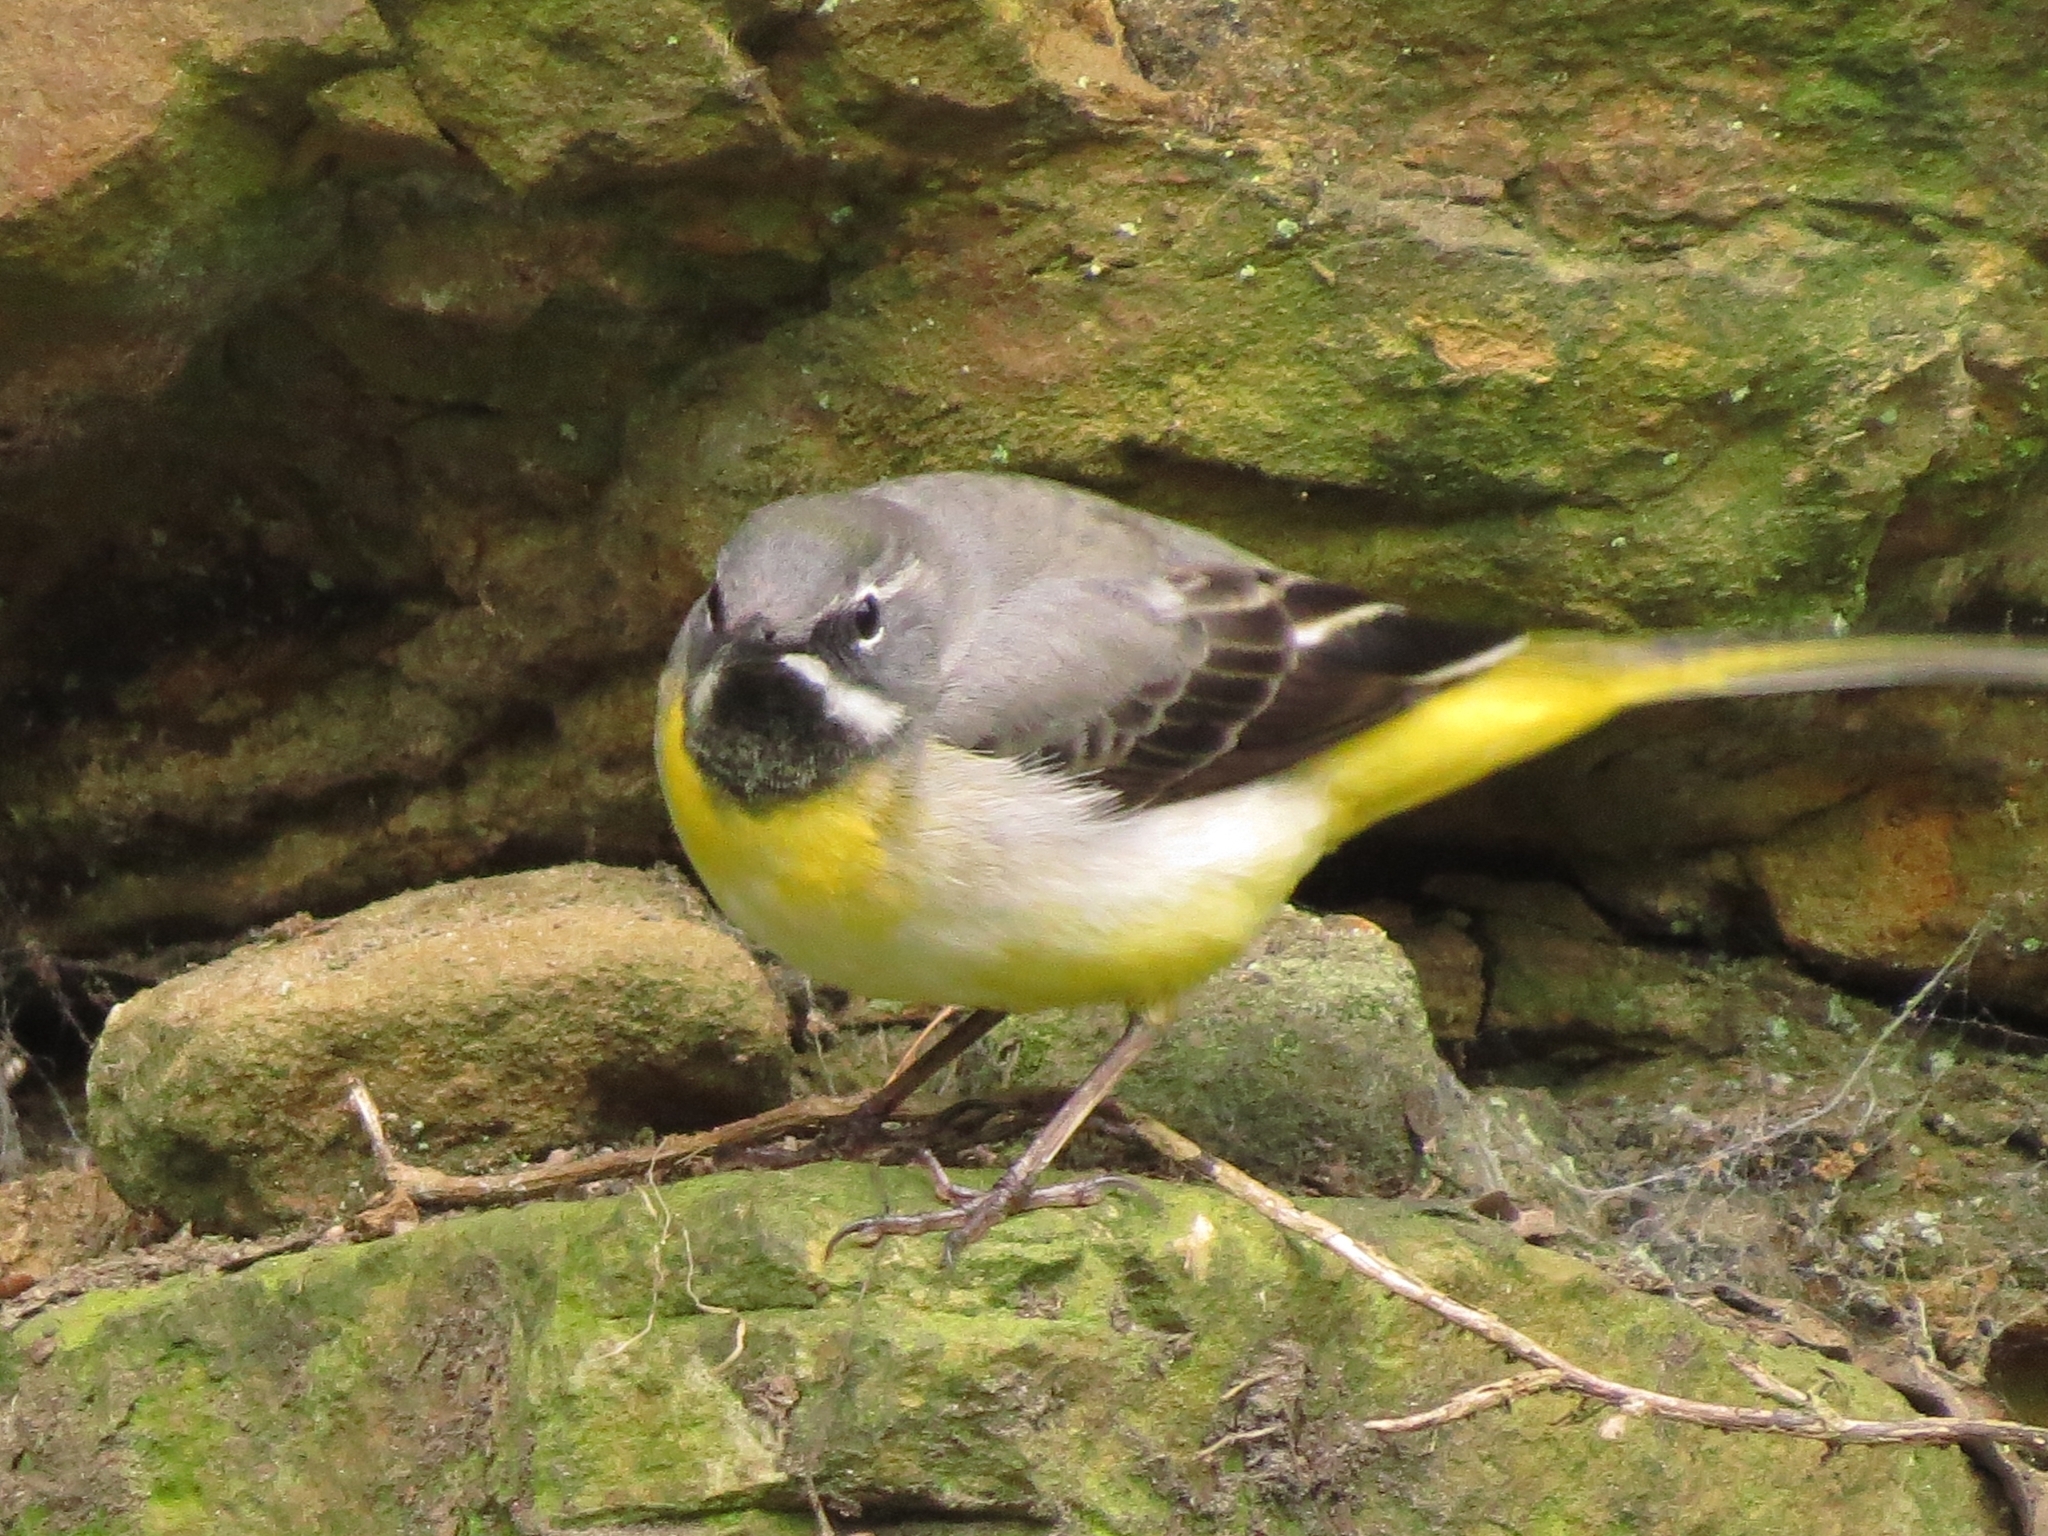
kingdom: Animalia
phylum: Chordata
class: Aves
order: Passeriformes
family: Motacillidae
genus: Motacilla
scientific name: Motacilla cinerea
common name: Grey wagtail
